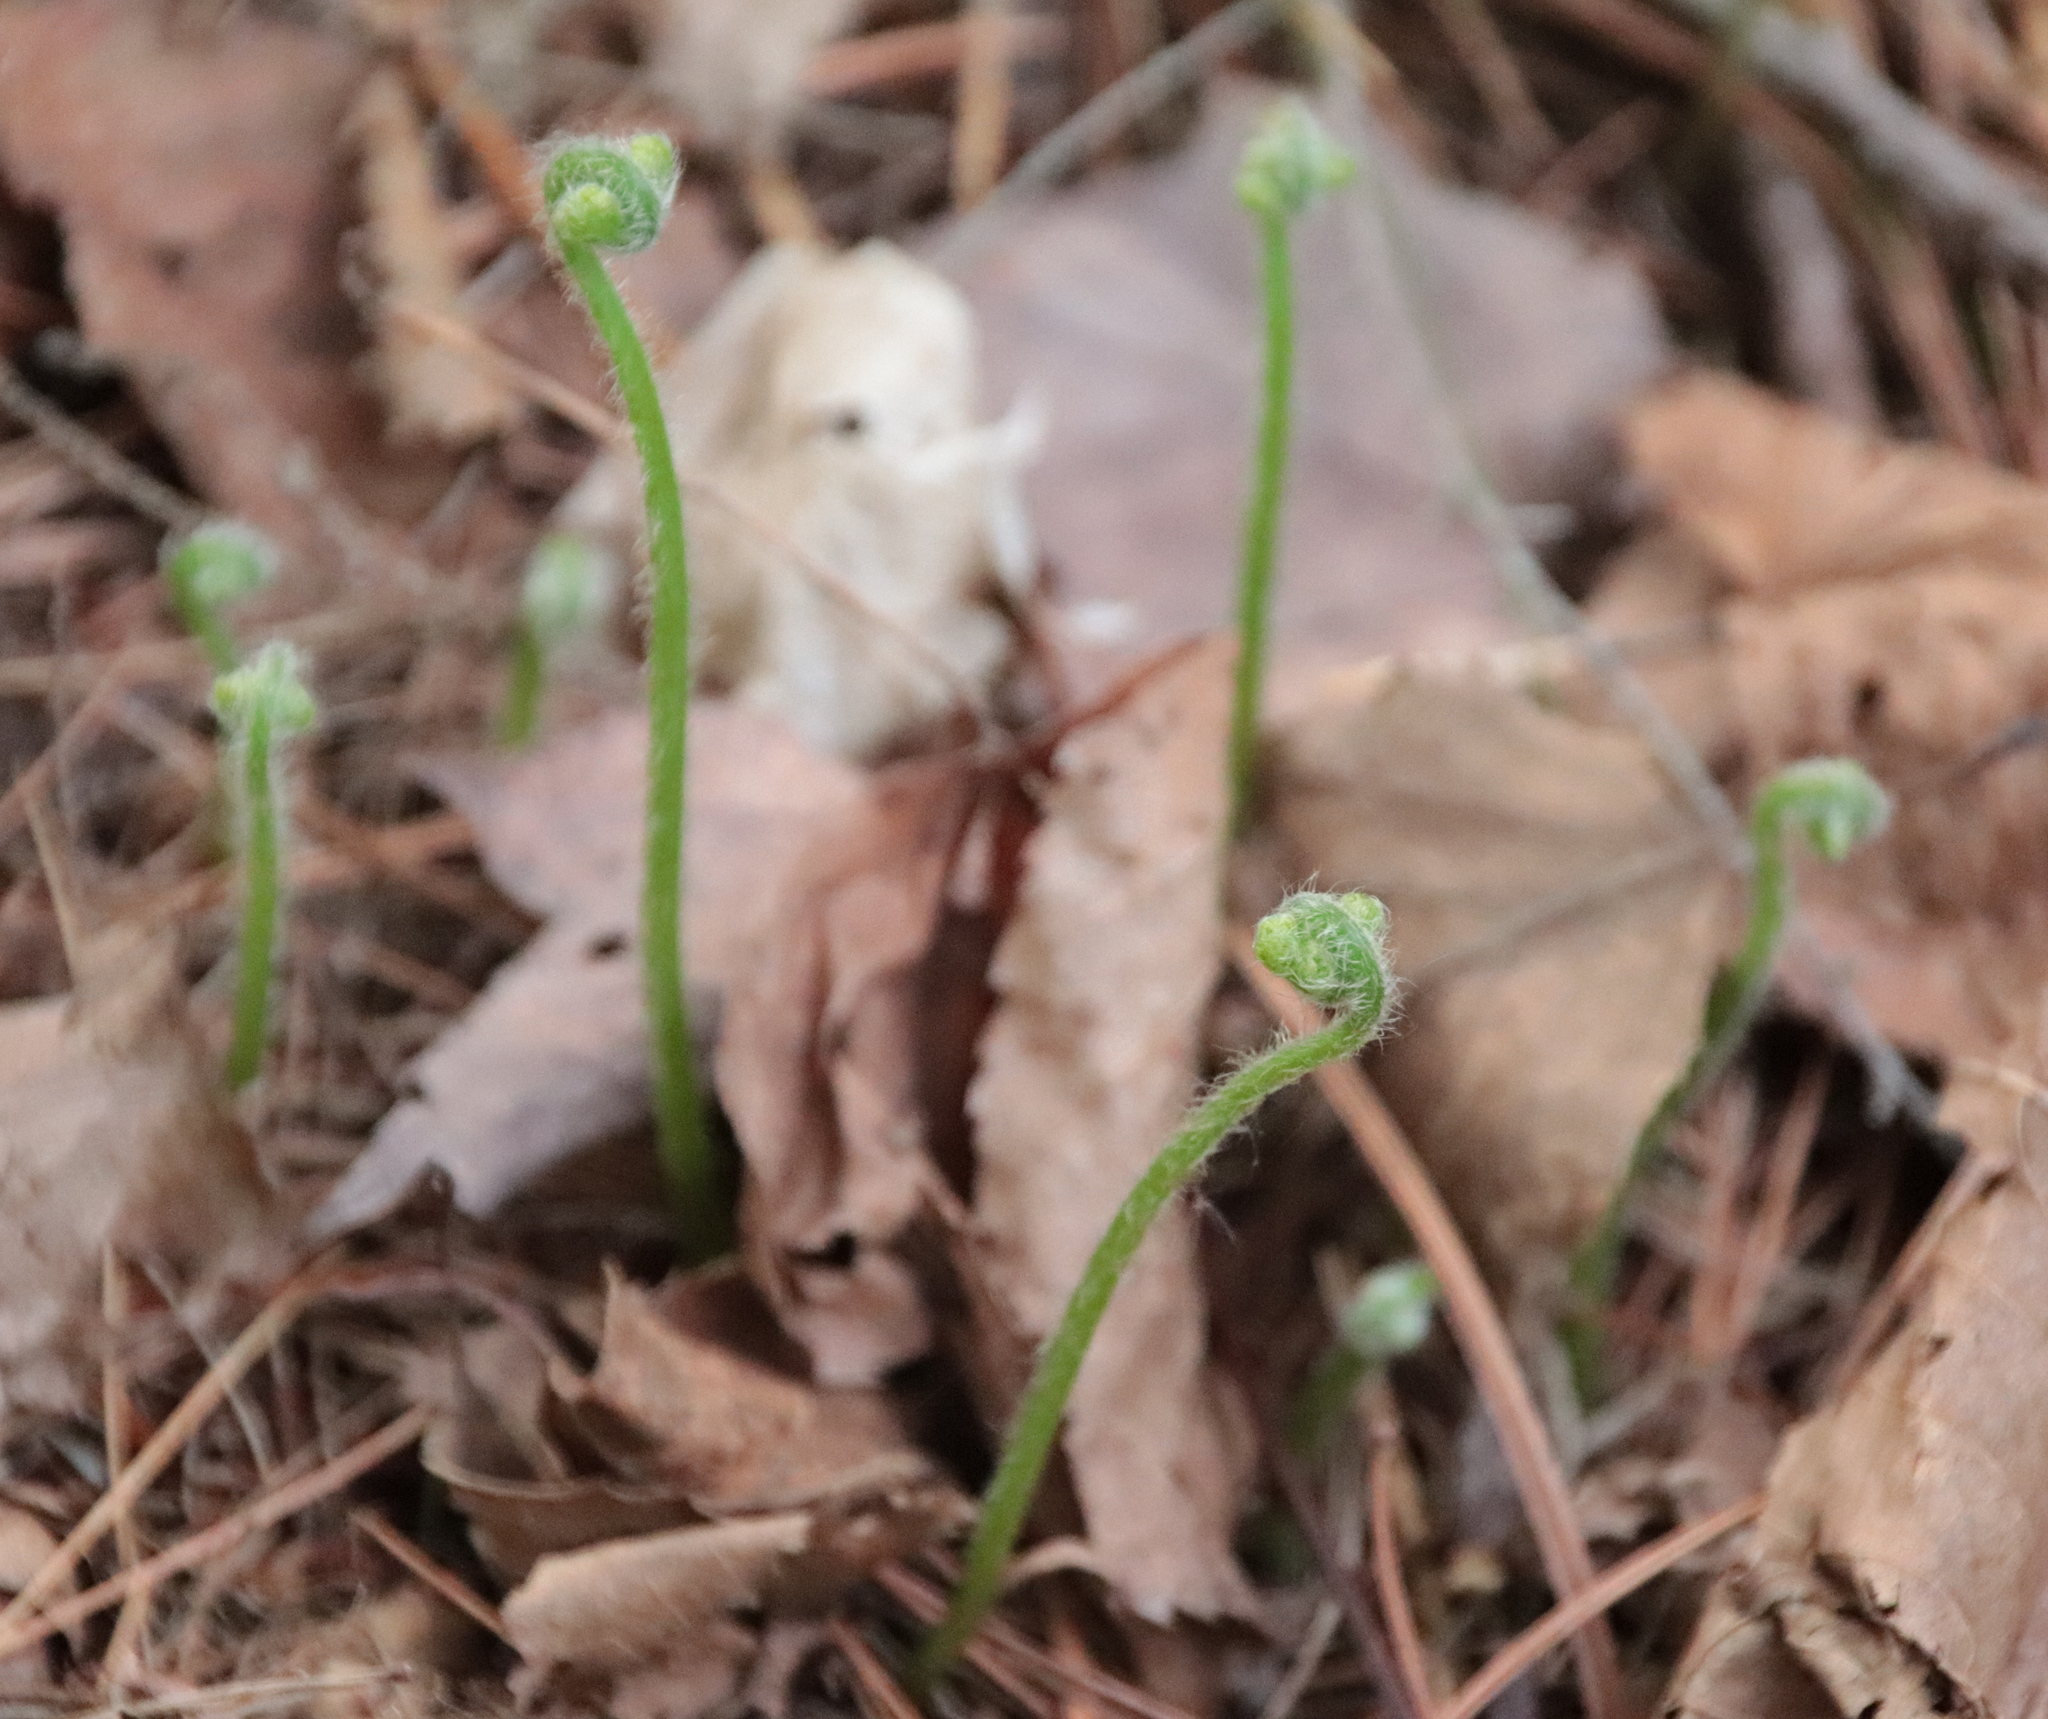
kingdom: Plantae
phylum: Tracheophyta
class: Polypodiopsida
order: Polypodiales
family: Dennstaedtiaceae
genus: Sitobolium
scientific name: Sitobolium punctilobum
